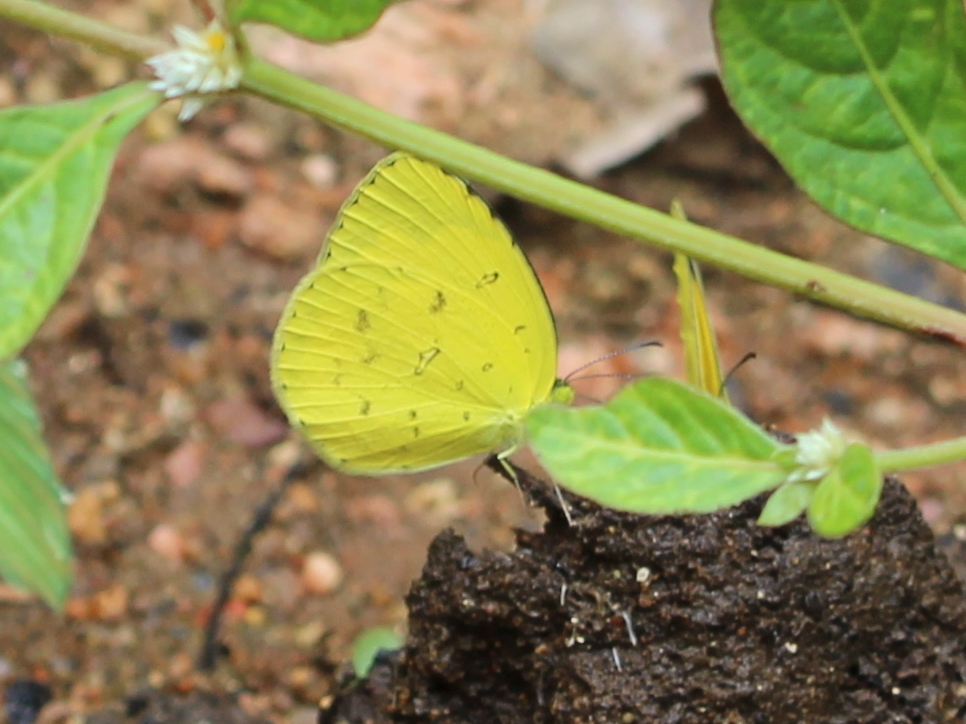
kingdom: Animalia
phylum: Arthropoda
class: Insecta
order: Lepidoptera
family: Pieridae
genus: Eurema
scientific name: Eurema hecabe
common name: Pale grass yellow
